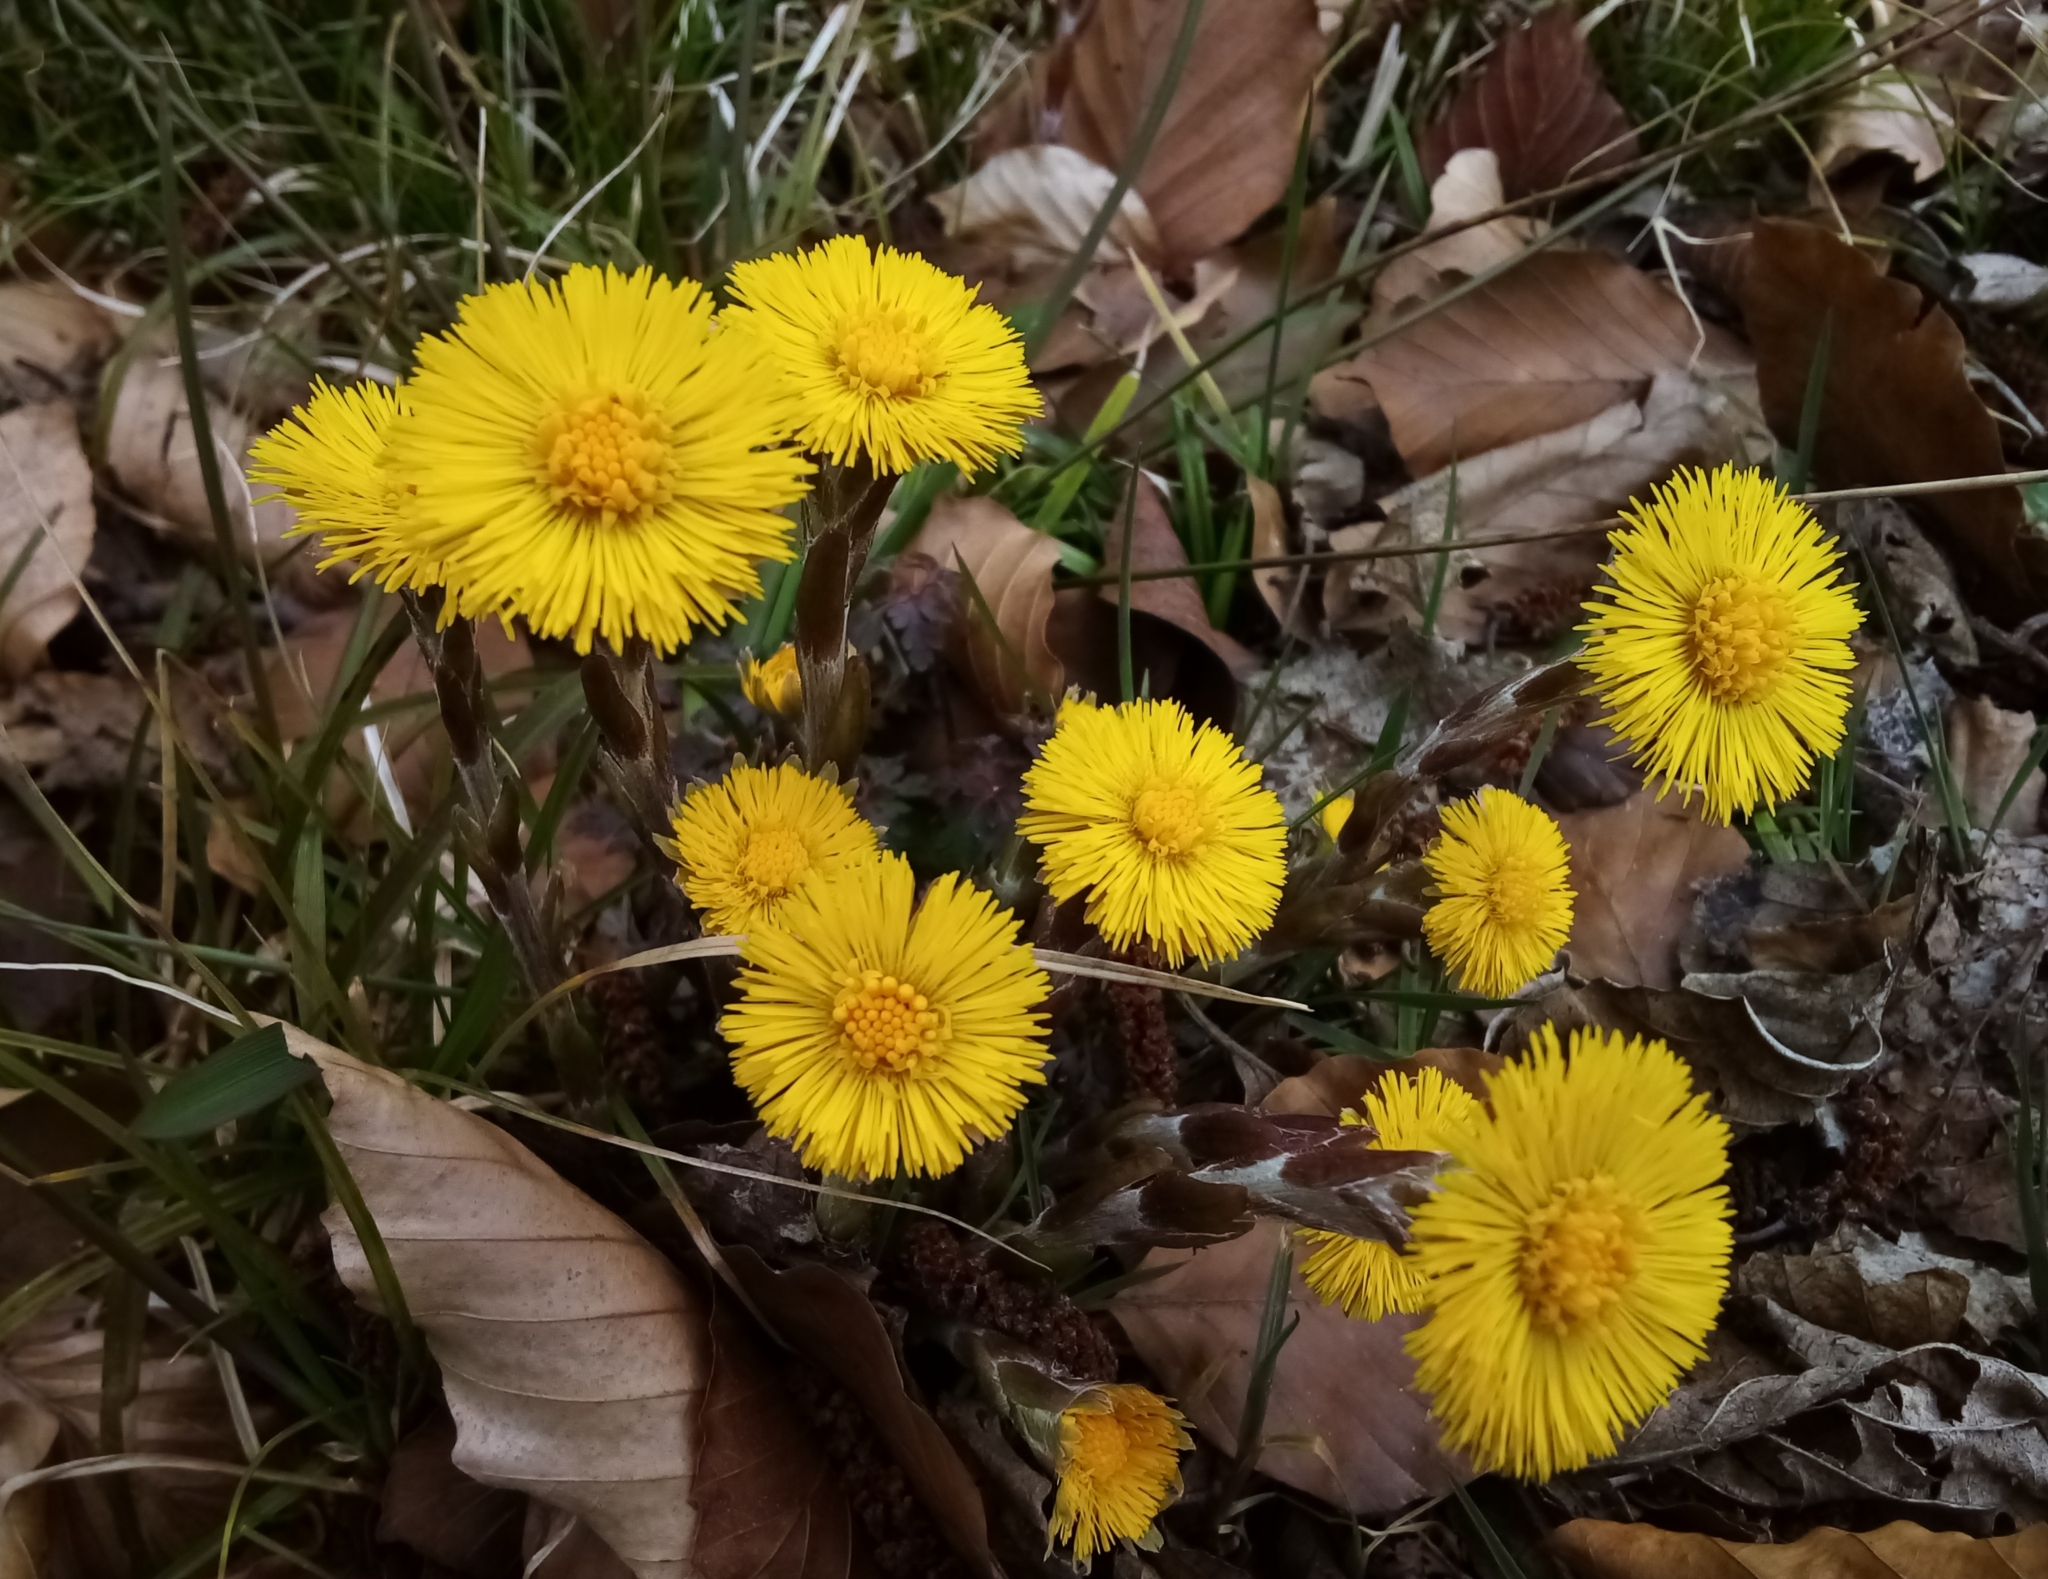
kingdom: Plantae
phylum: Tracheophyta
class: Magnoliopsida
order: Asterales
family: Asteraceae
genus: Tussilago
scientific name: Tussilago farfara
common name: Coltsfoot
